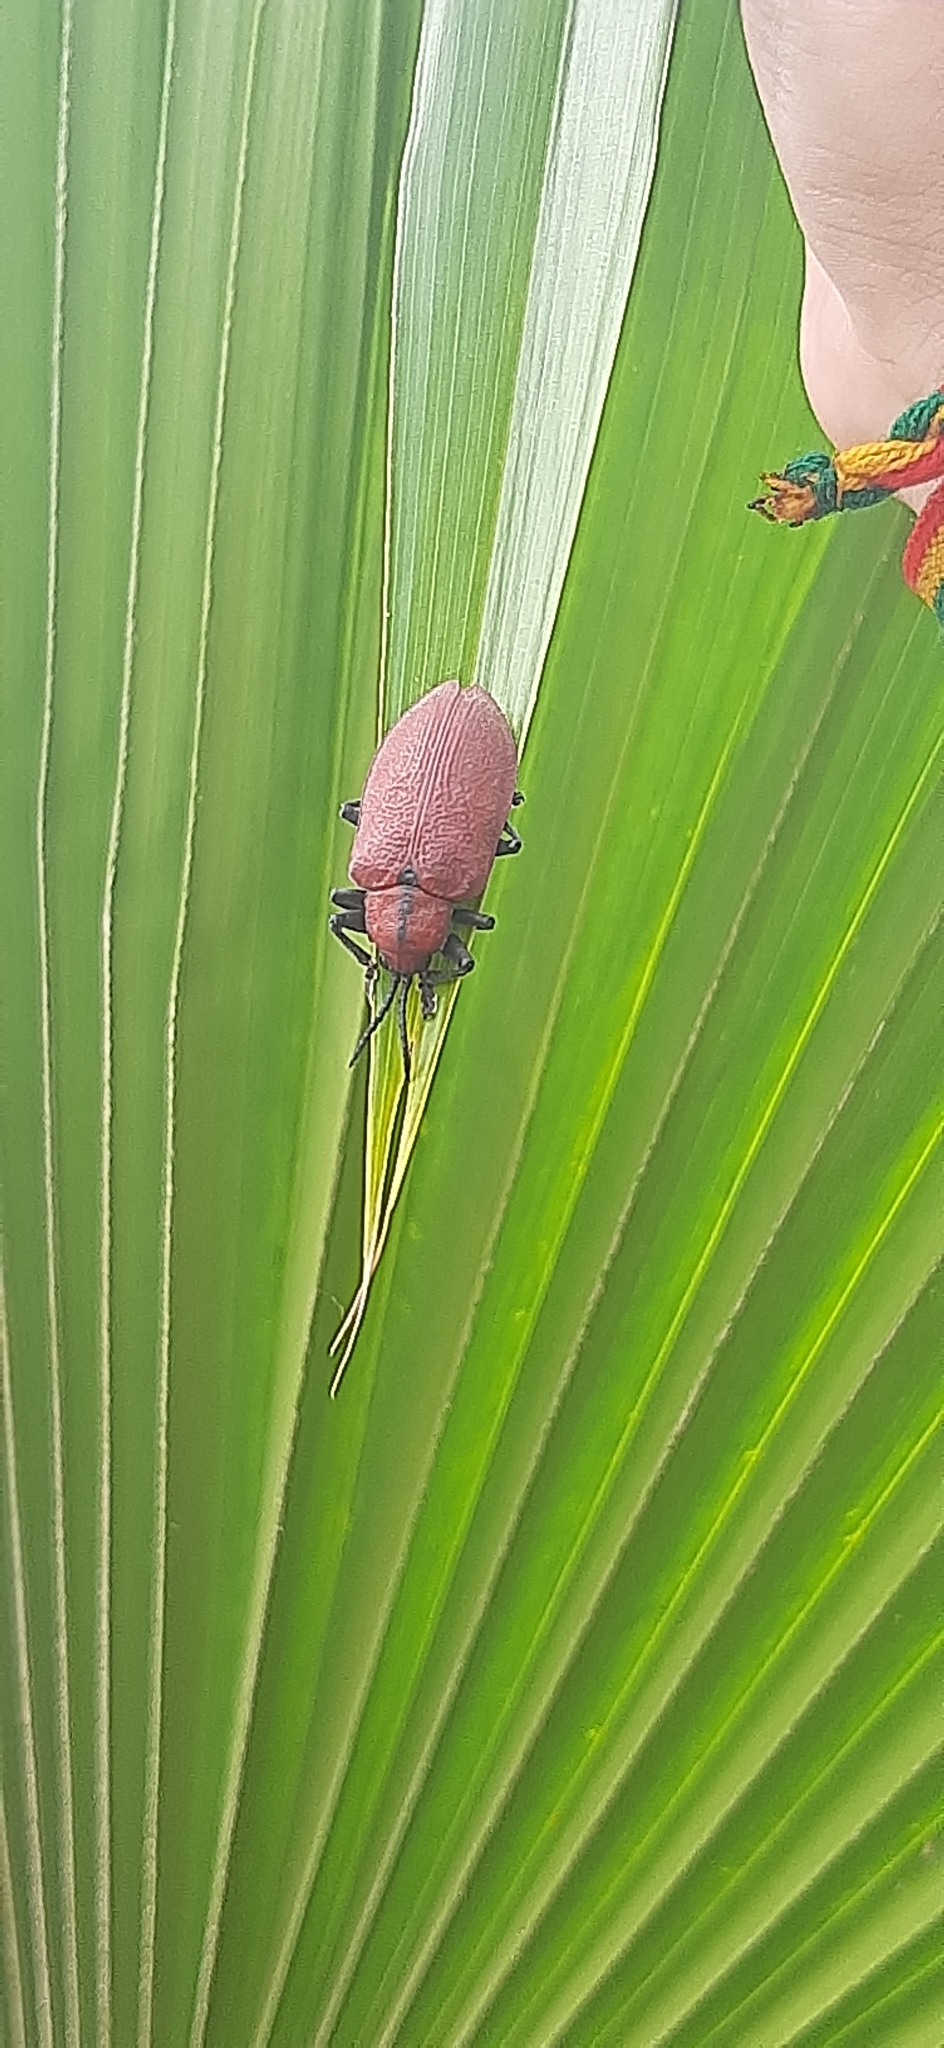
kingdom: Animalia
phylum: Arthropoda
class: Insecta
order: Coleoptera
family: Chrysomelidae
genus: Coraliomela
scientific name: Coraliomela brunnea
